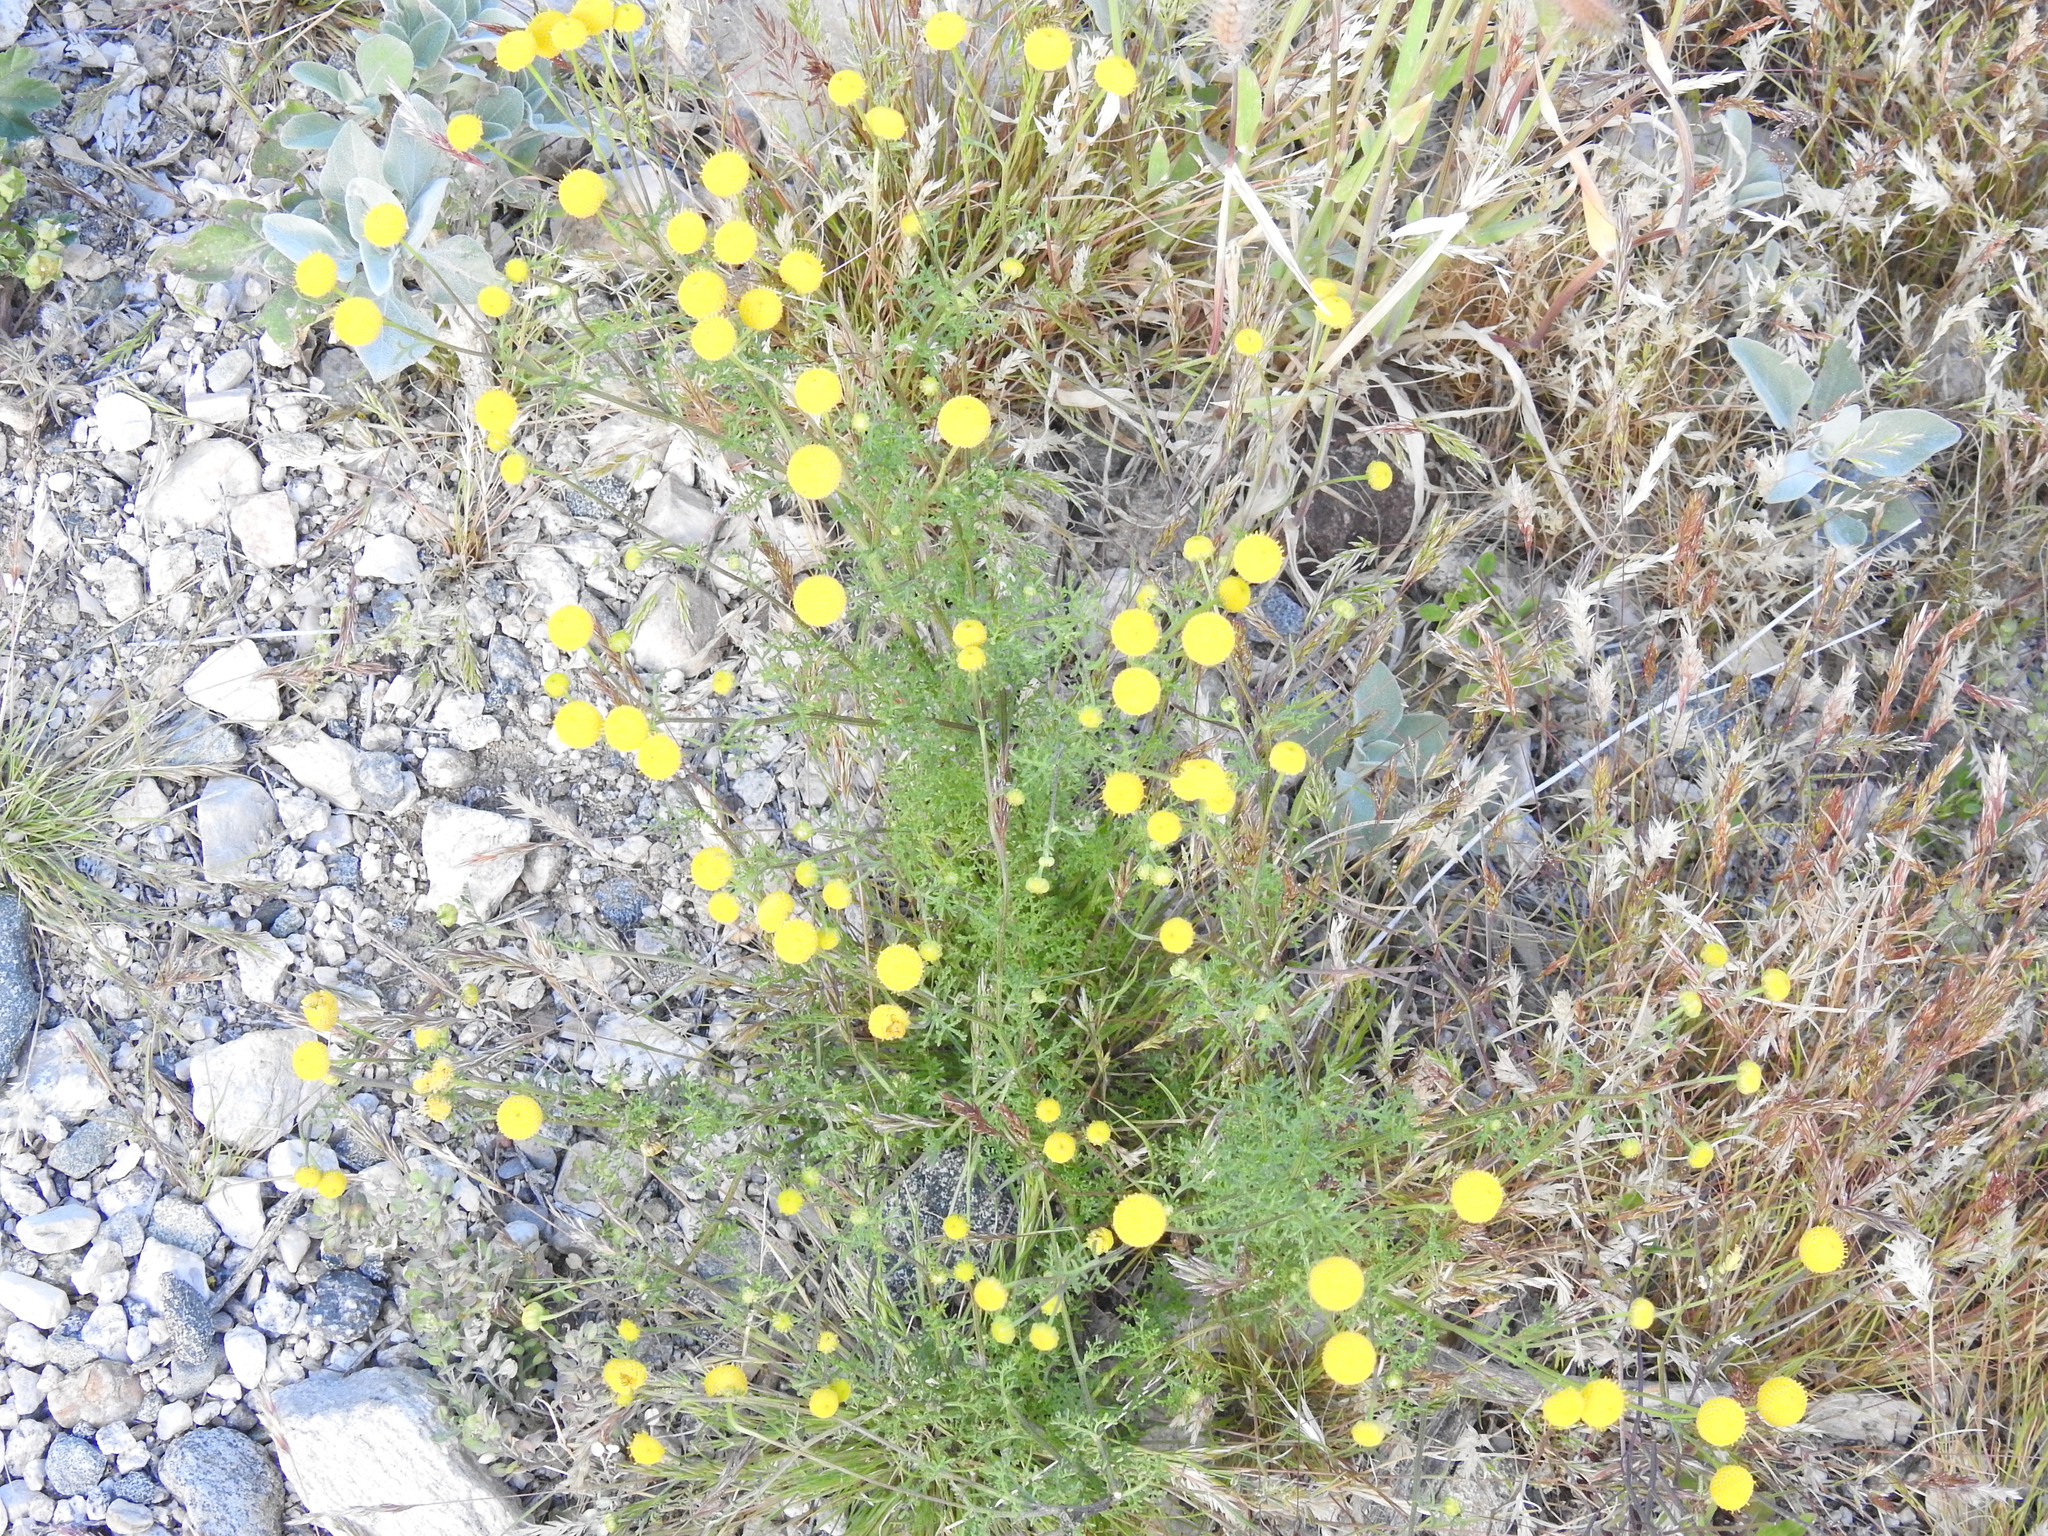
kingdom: Plantae
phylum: Tracheophyta
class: Magnoliopsida
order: Asterales
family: Asteraceae
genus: Oncosiphon
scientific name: Oncosiphon pilulifer
